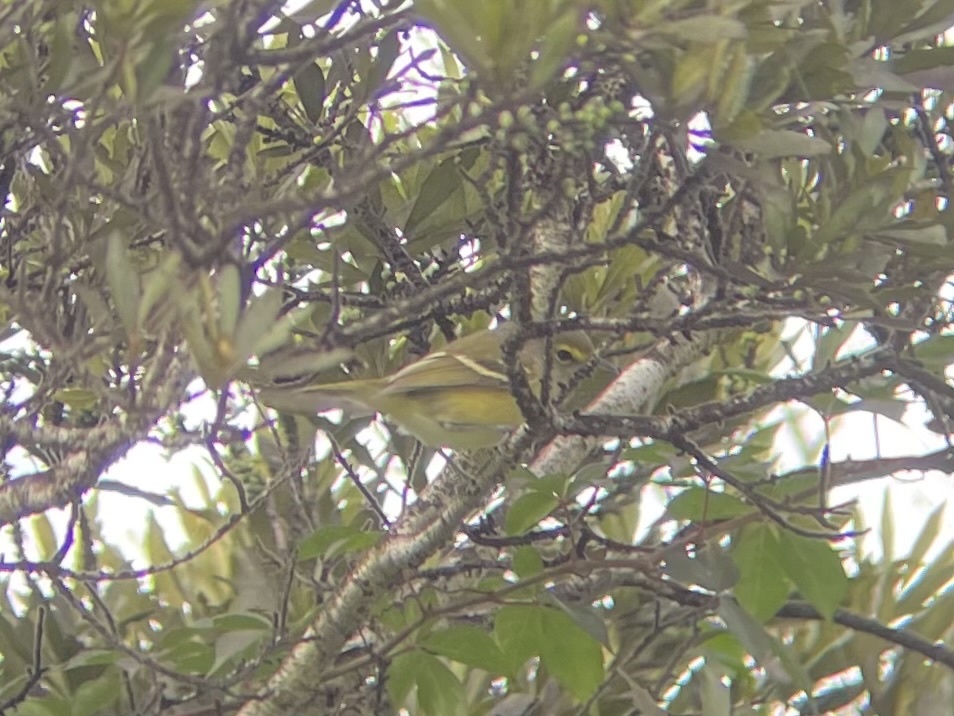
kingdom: Animalia
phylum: Chordata
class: Aves
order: Passeriformes
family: Vireonidae
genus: Vireo
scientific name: Vireo griseus
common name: White-eyed vireo
